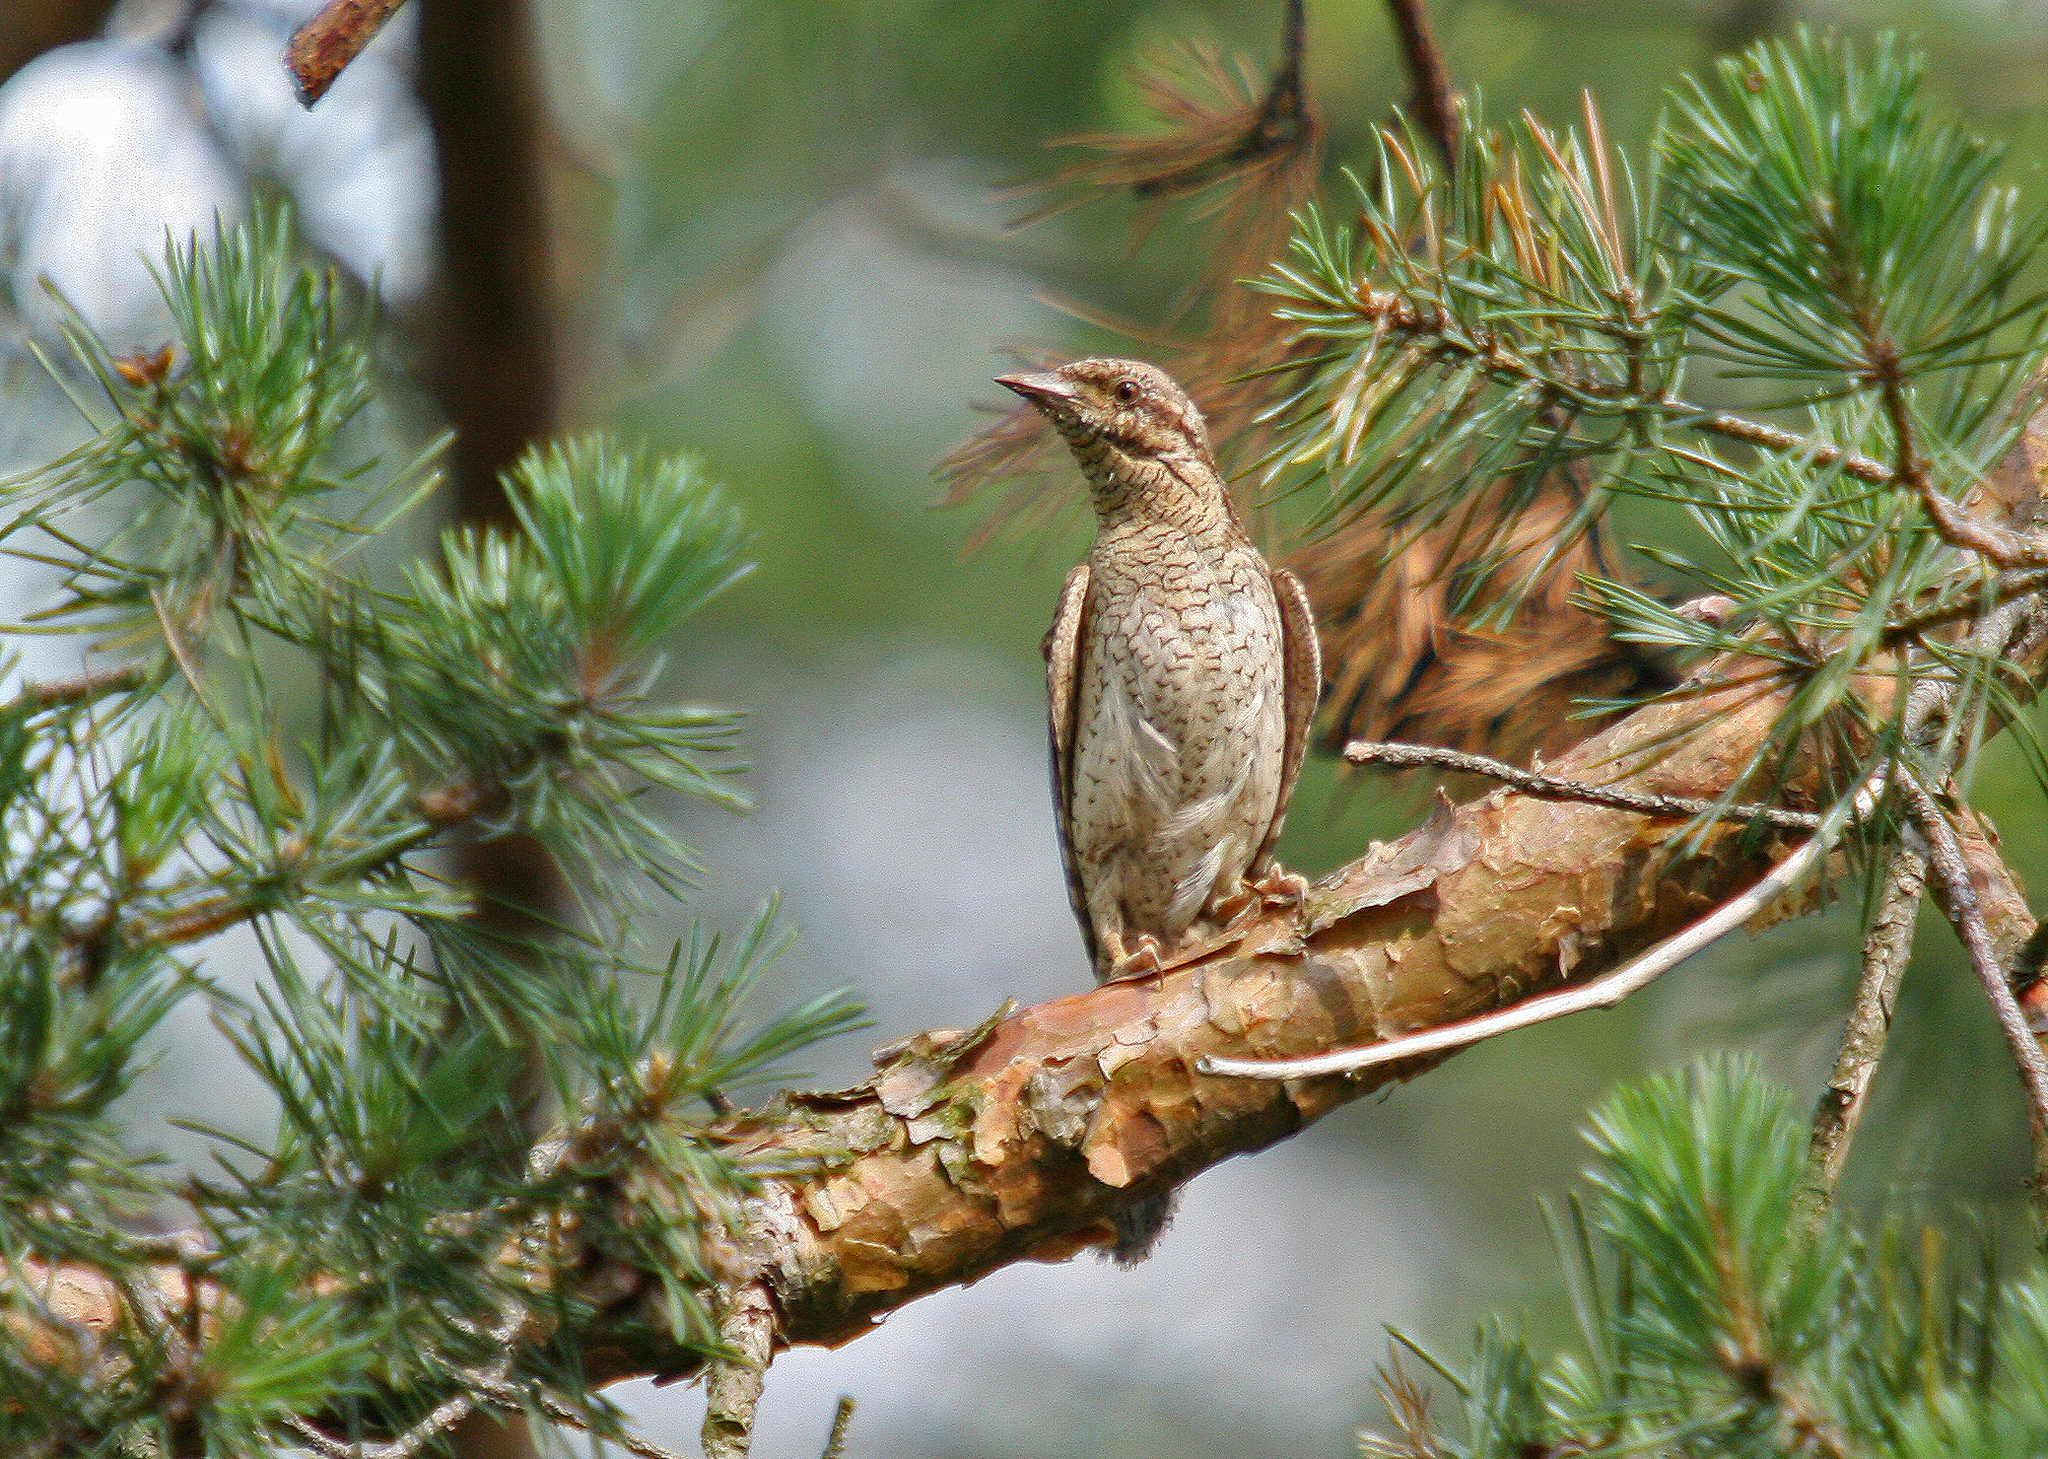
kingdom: Animalia
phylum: Chordata
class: Aves
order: Piciformes
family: Picidae
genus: Jynx
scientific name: Jynx torquilla
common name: Eurasian wryneck
